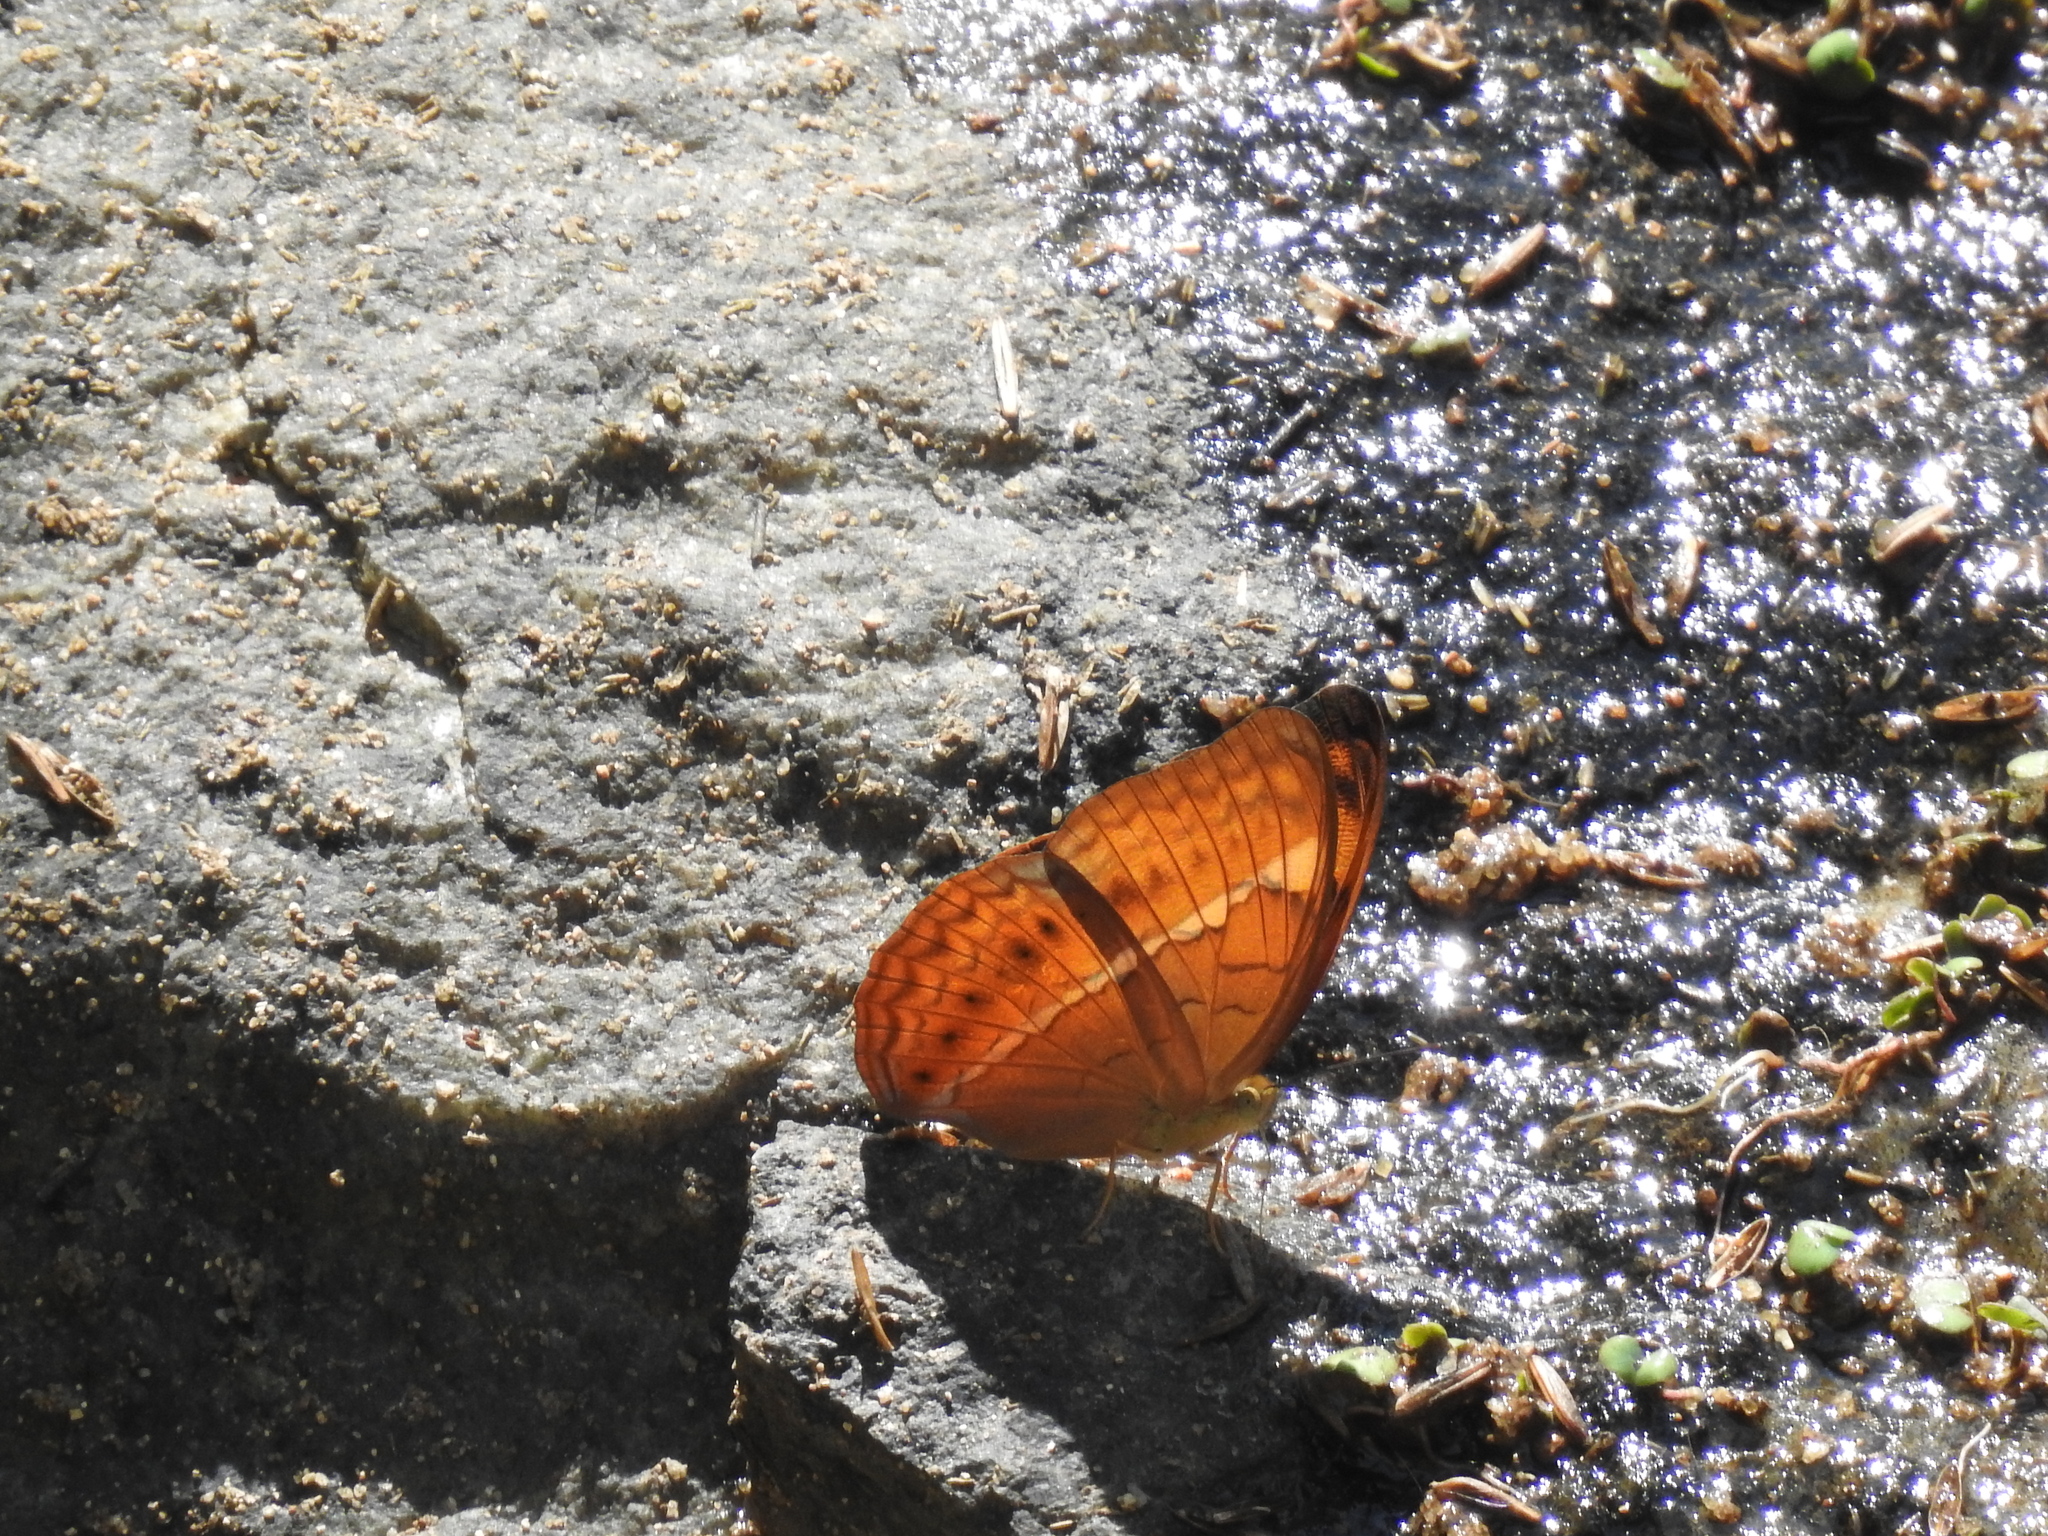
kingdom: Animalia
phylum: Arthropoda
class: Insecta
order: Lepidoptera
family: Nymphalidae
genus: Cirrochroa
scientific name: Cirrochroa thais
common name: Tamil yeoman
